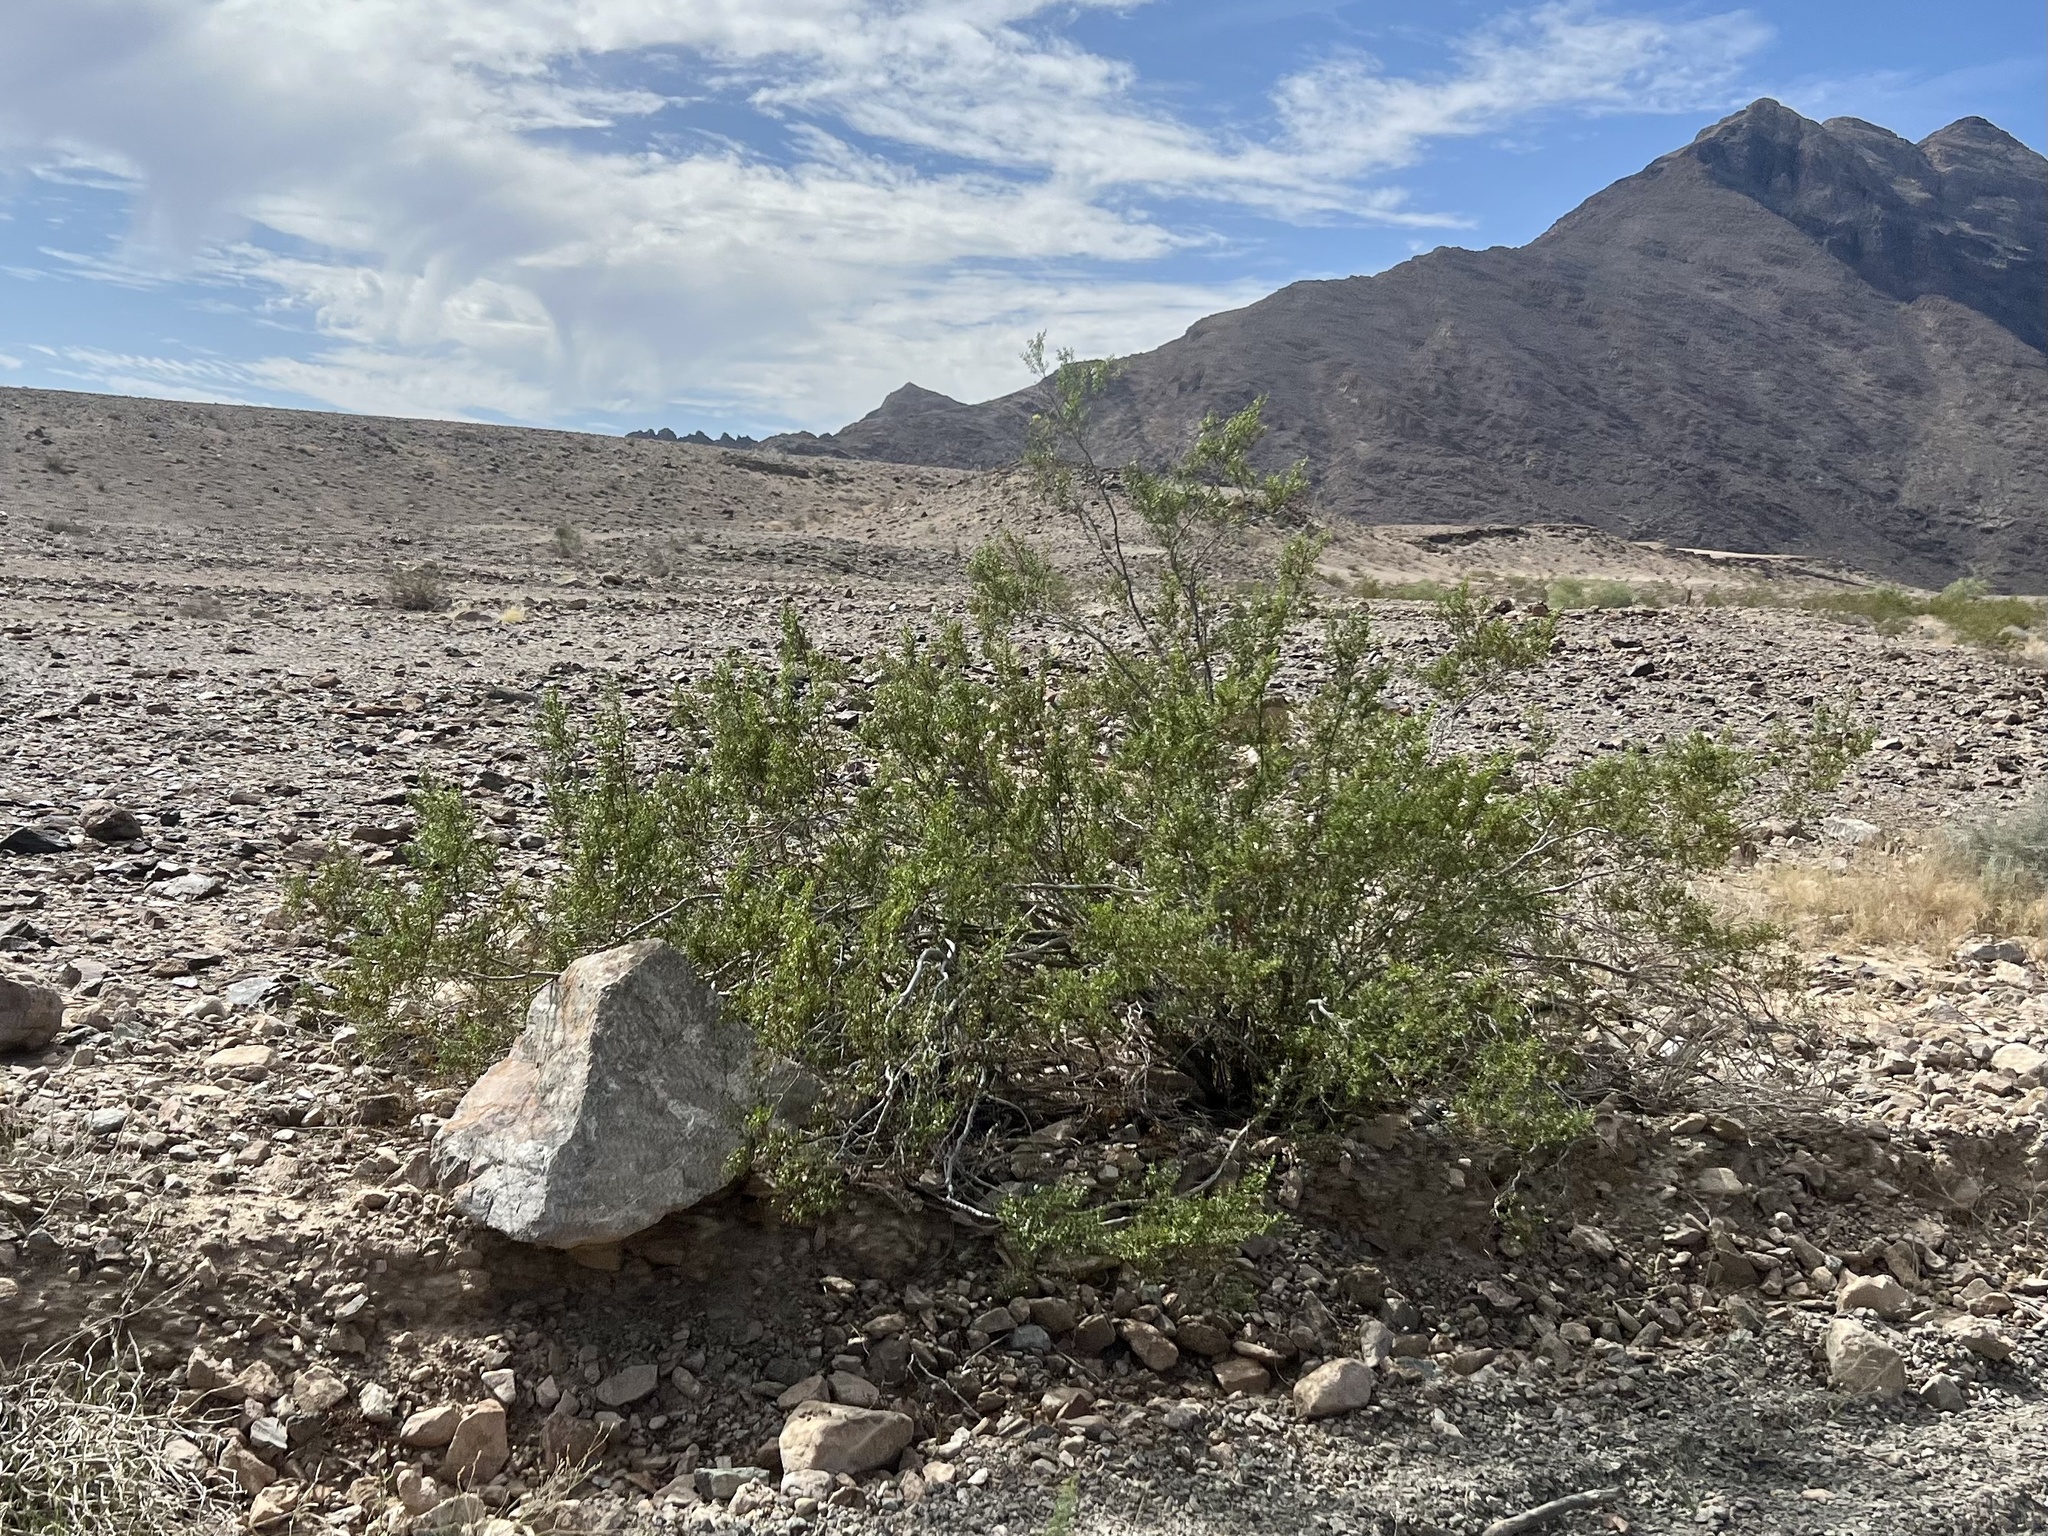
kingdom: Plantae
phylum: Tracheophyta
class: Magnoliopsida
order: Zygophyllales
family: Zygophyllaceae
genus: Larrea
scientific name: Larrea tridentata
